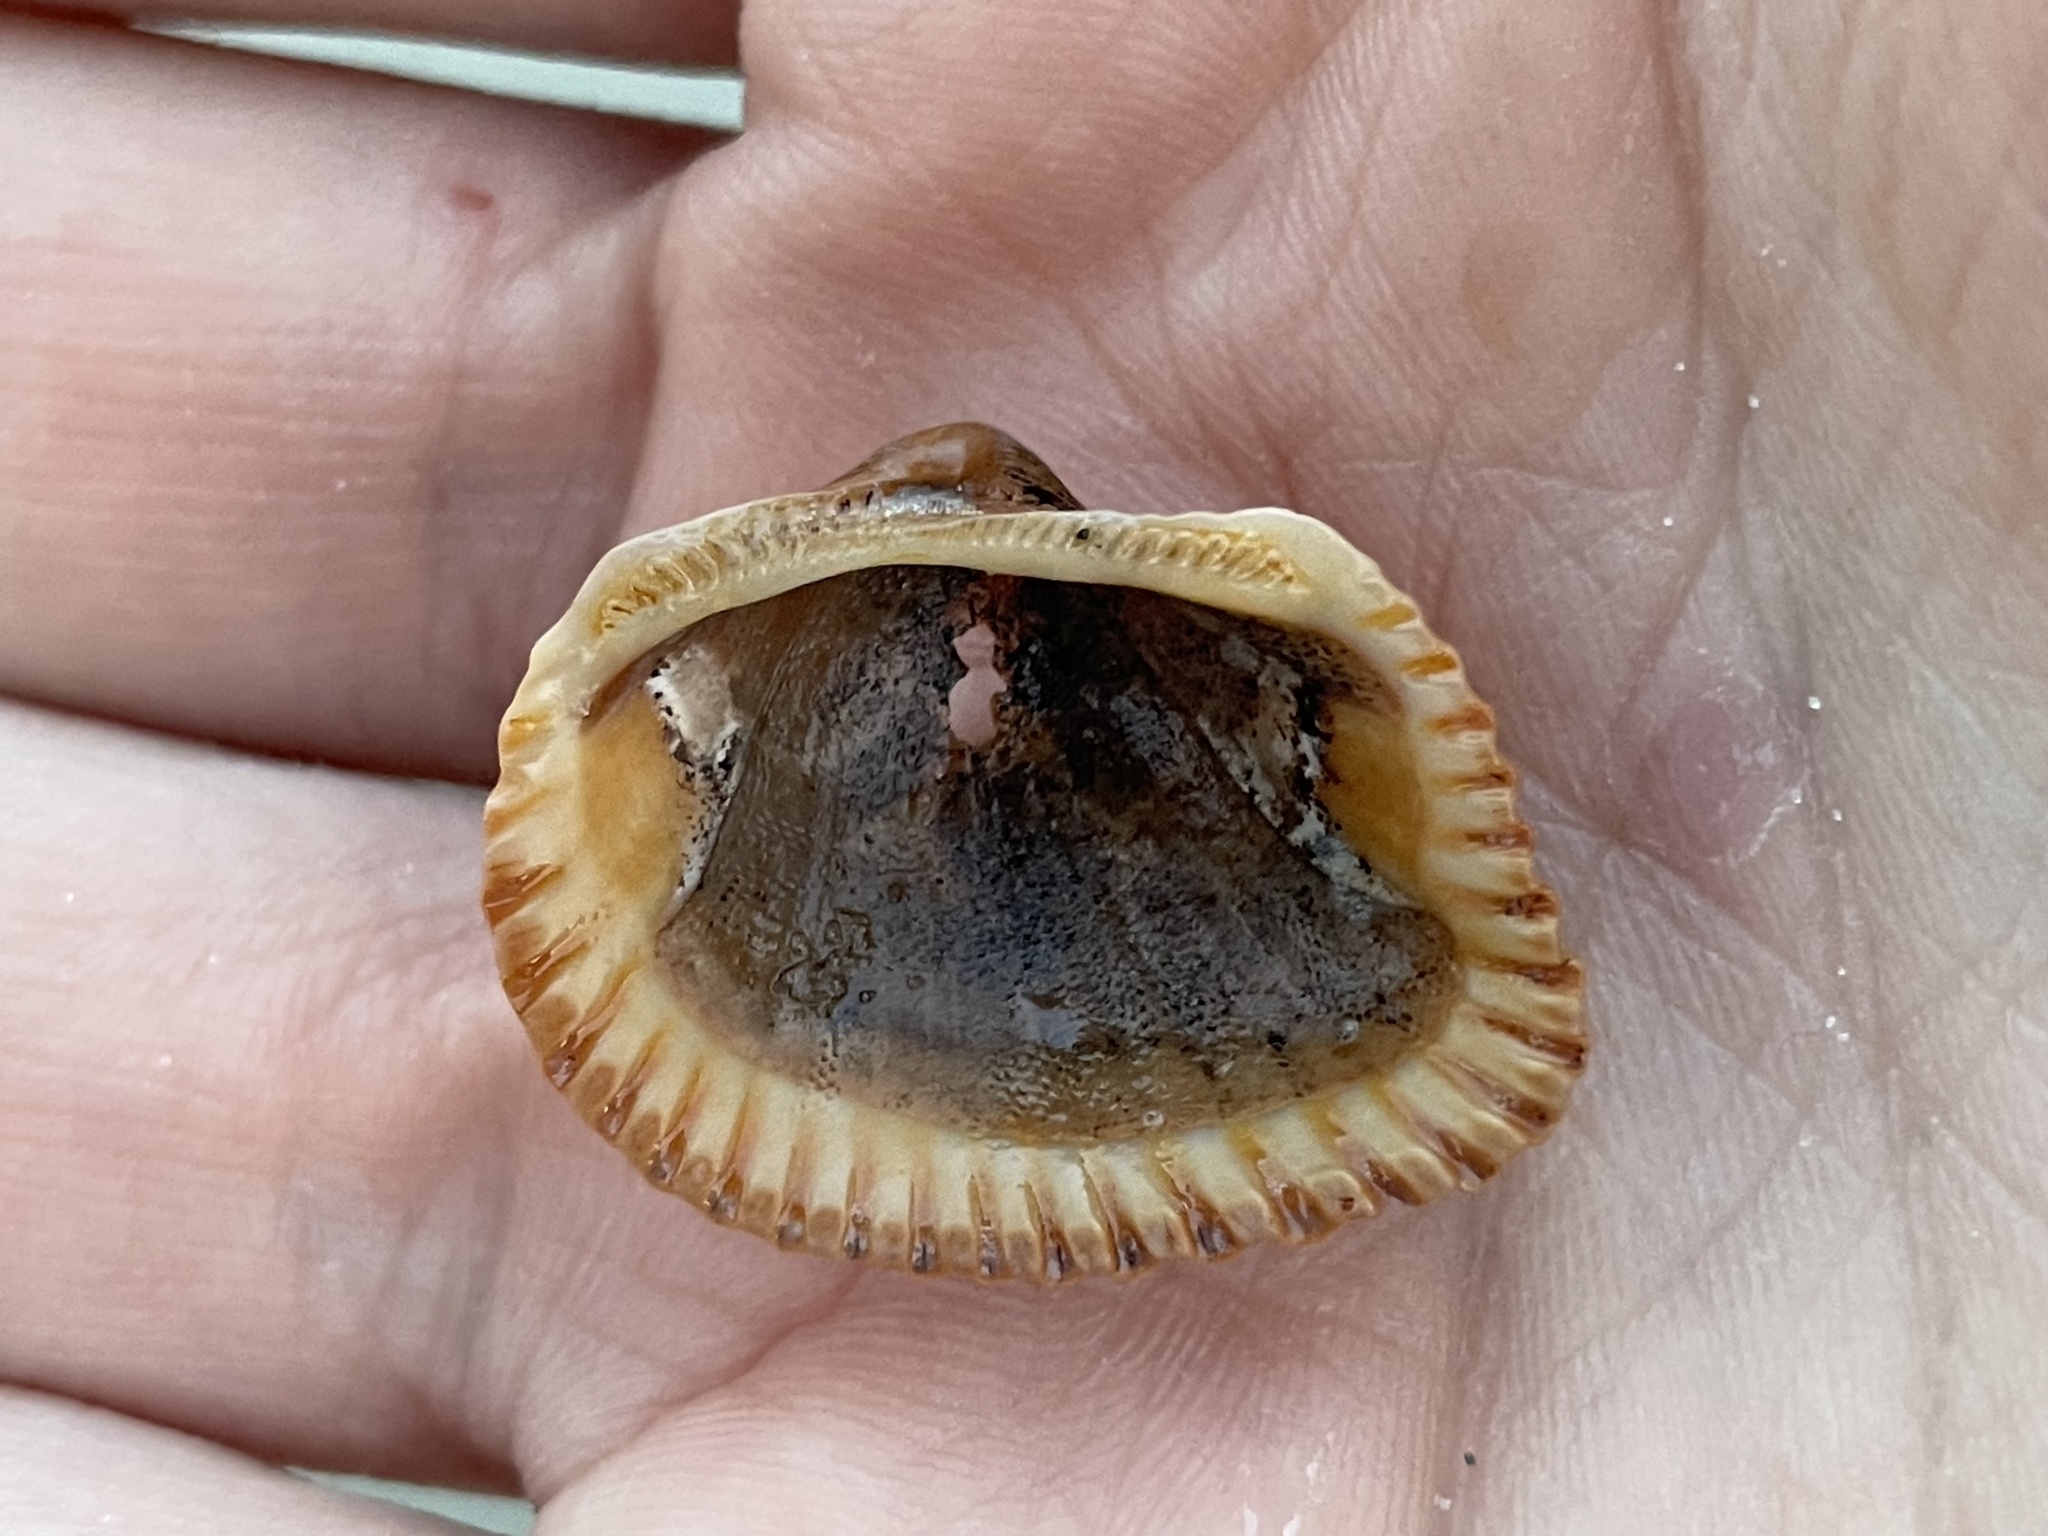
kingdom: Animalia
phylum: Mollusca
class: Bivalvia
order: Arcida
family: Noetiidae
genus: Noetia
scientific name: Noetia ponderosa
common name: Ponderous ark
